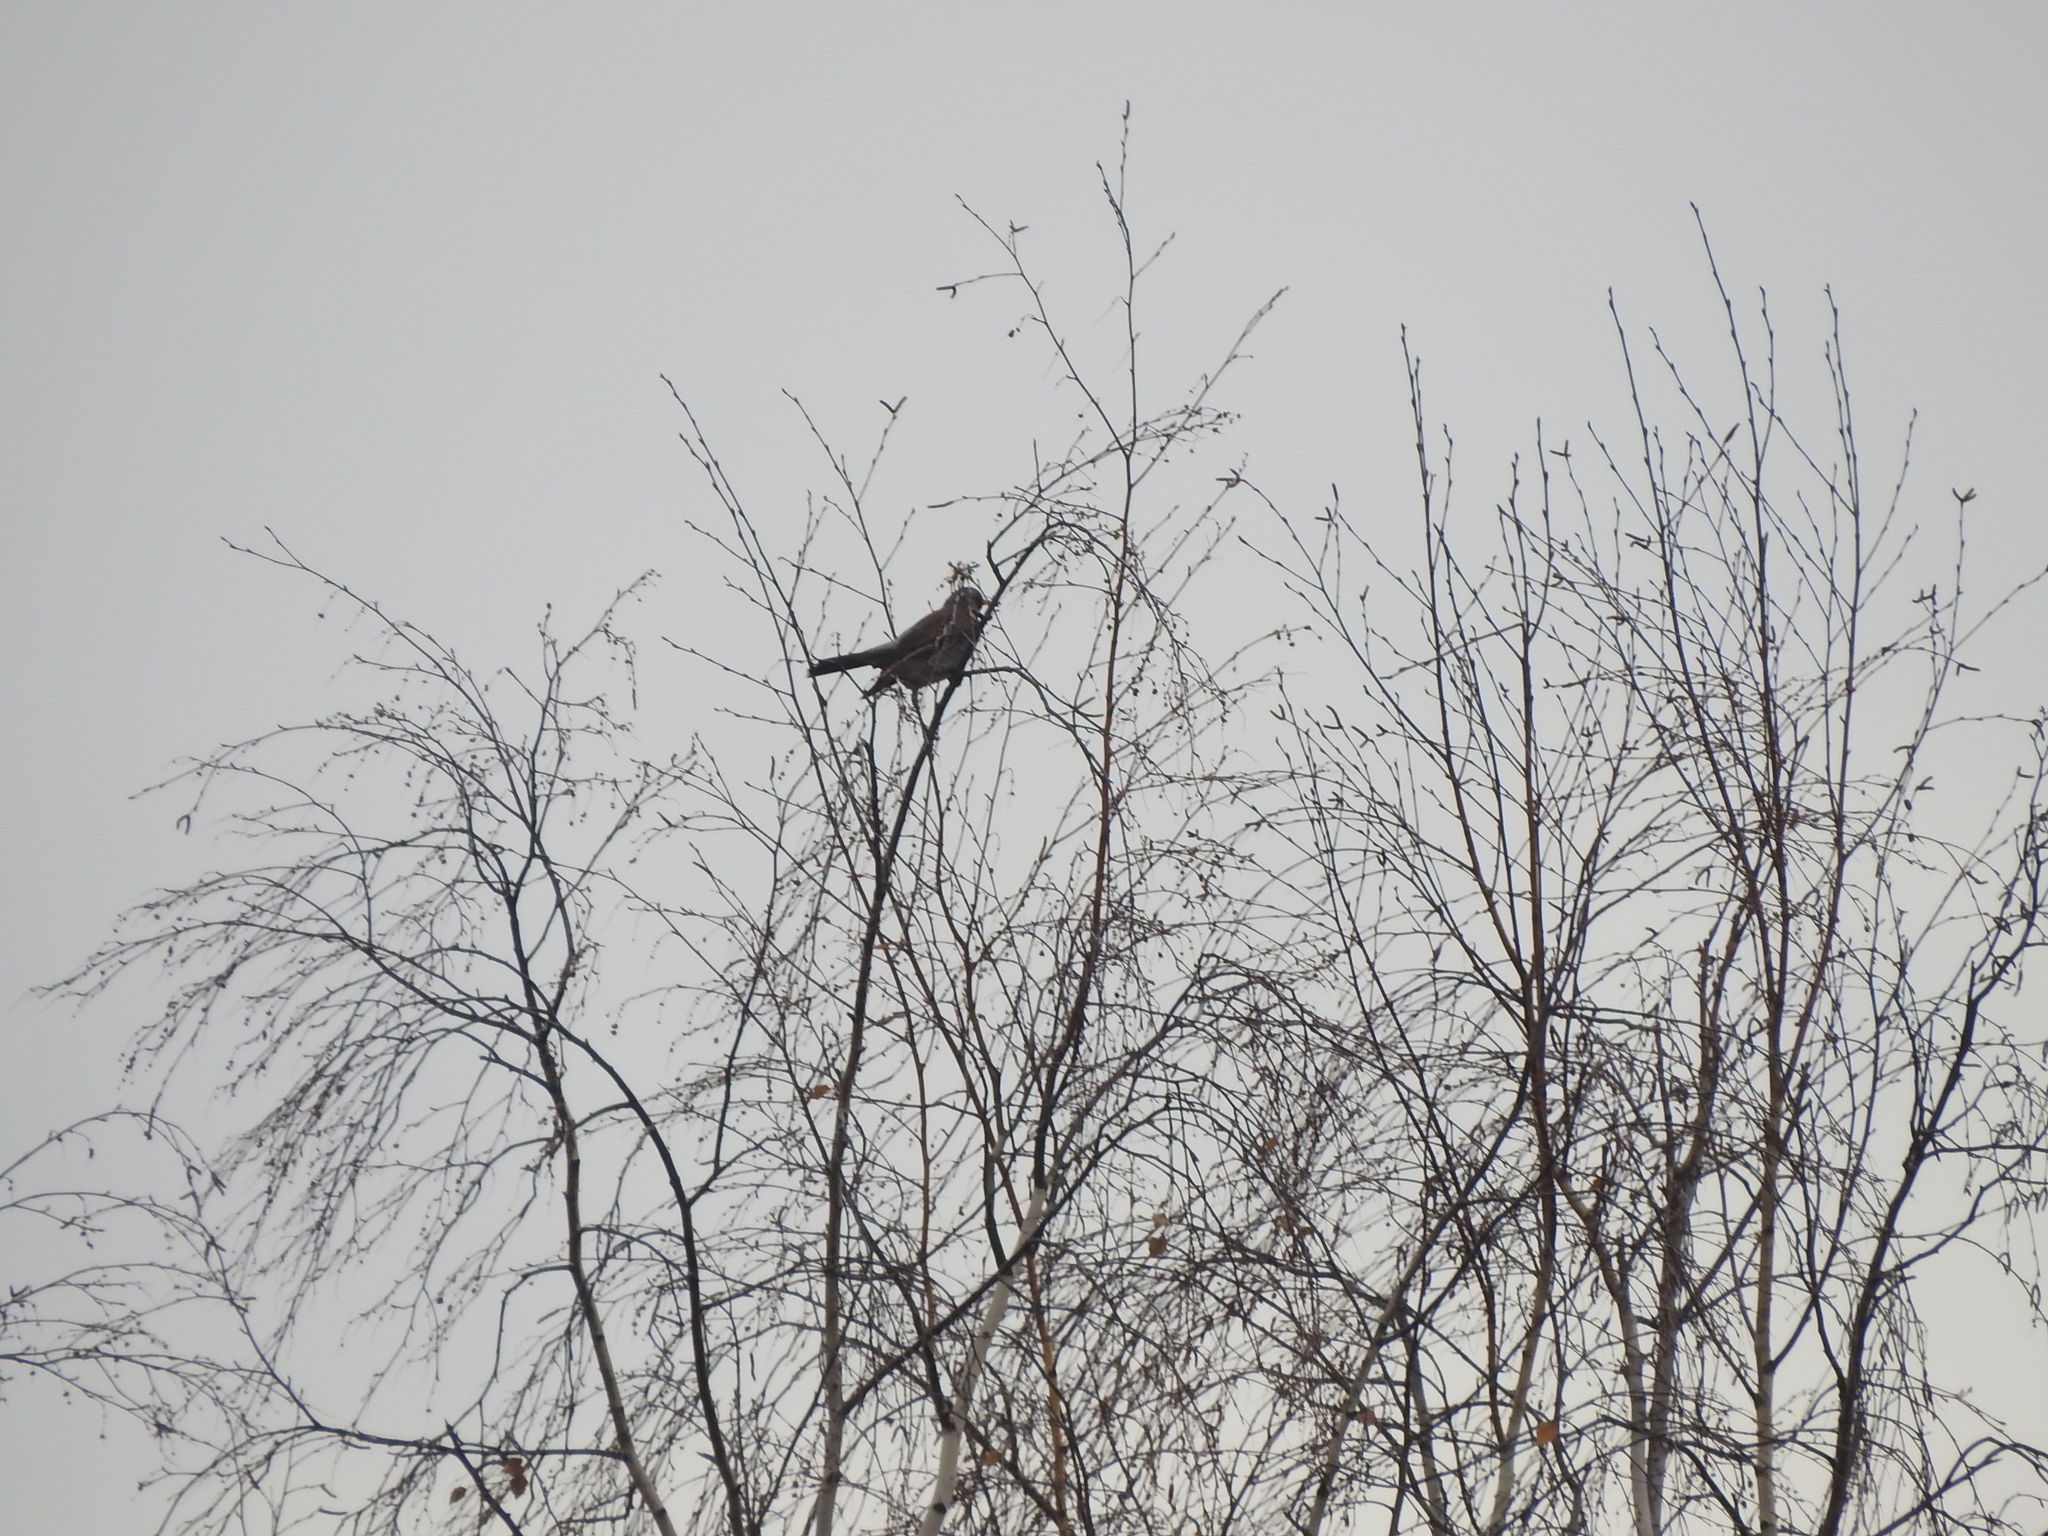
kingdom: Animalia
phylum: Chordata
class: Aves
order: Passeriformes
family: Turdidae
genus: Turdus
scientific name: Turdus pilaris
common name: Fieldfare
